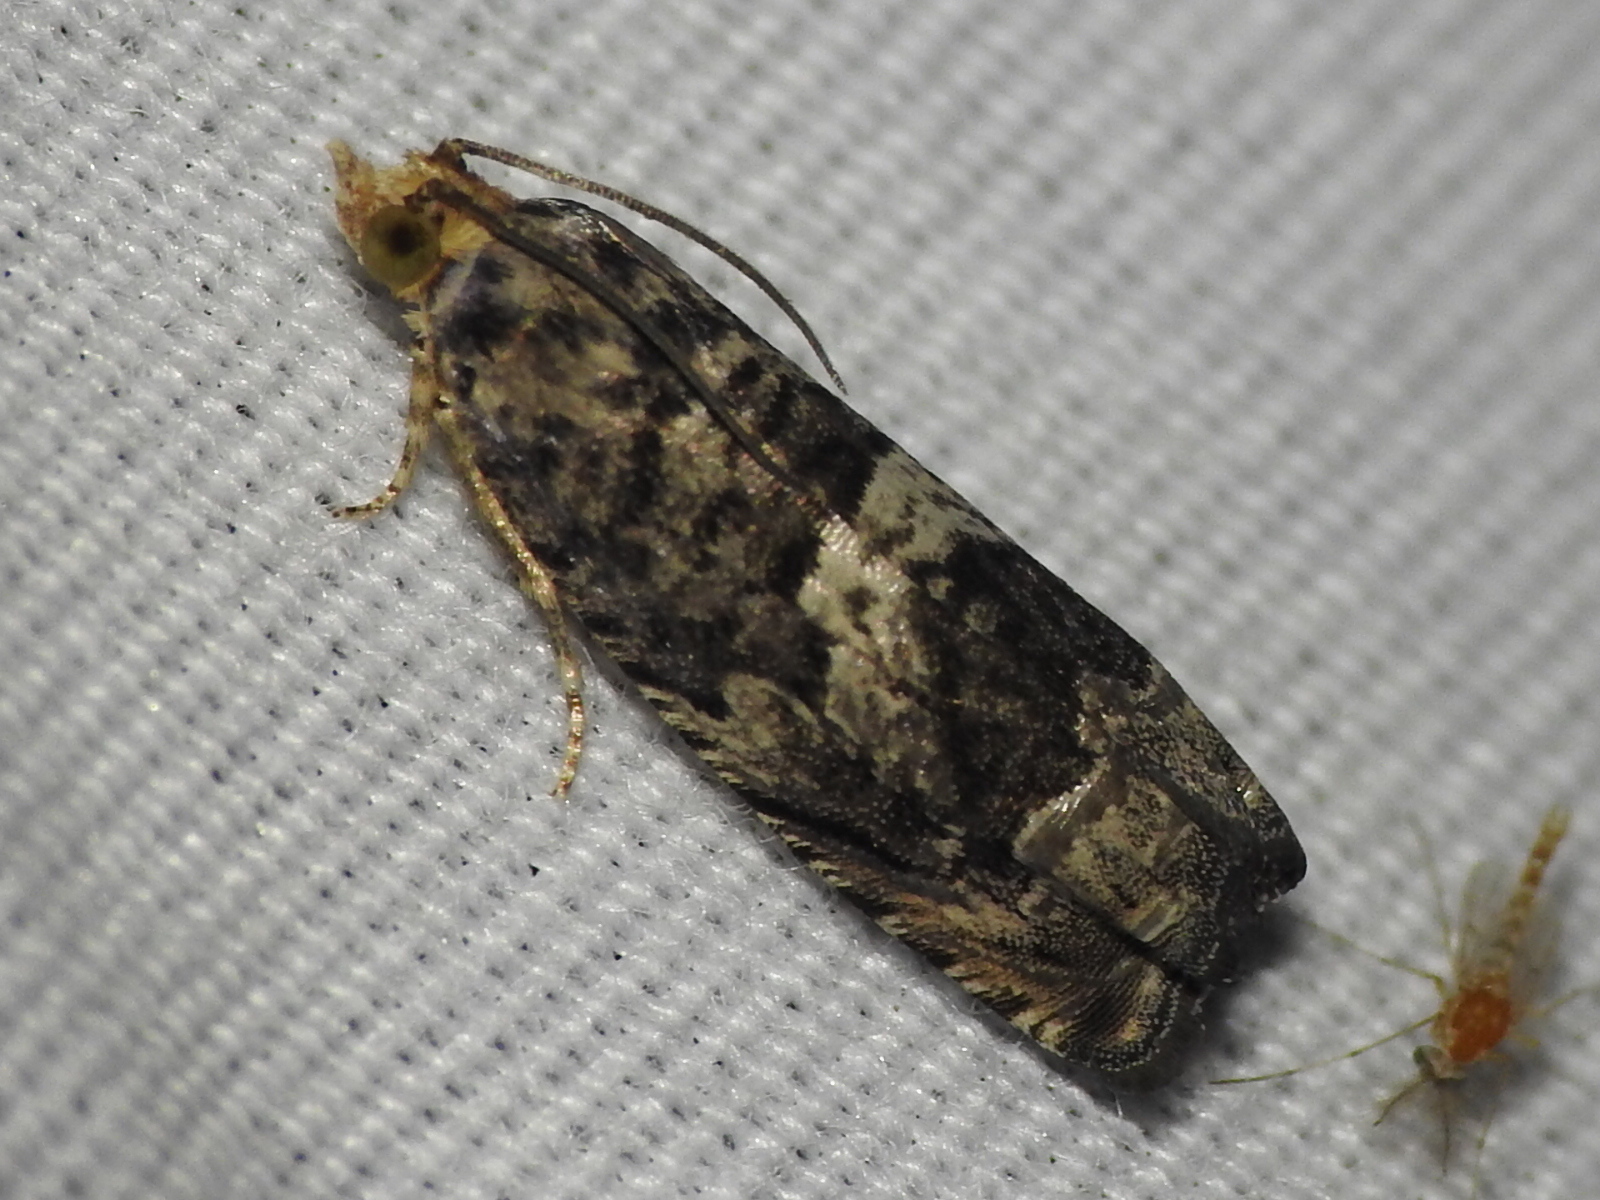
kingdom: Animalia
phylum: Arthropoda
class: Insecta
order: Lepidoptera
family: Tortricidae
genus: Cydia
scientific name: Cydia membrosa
